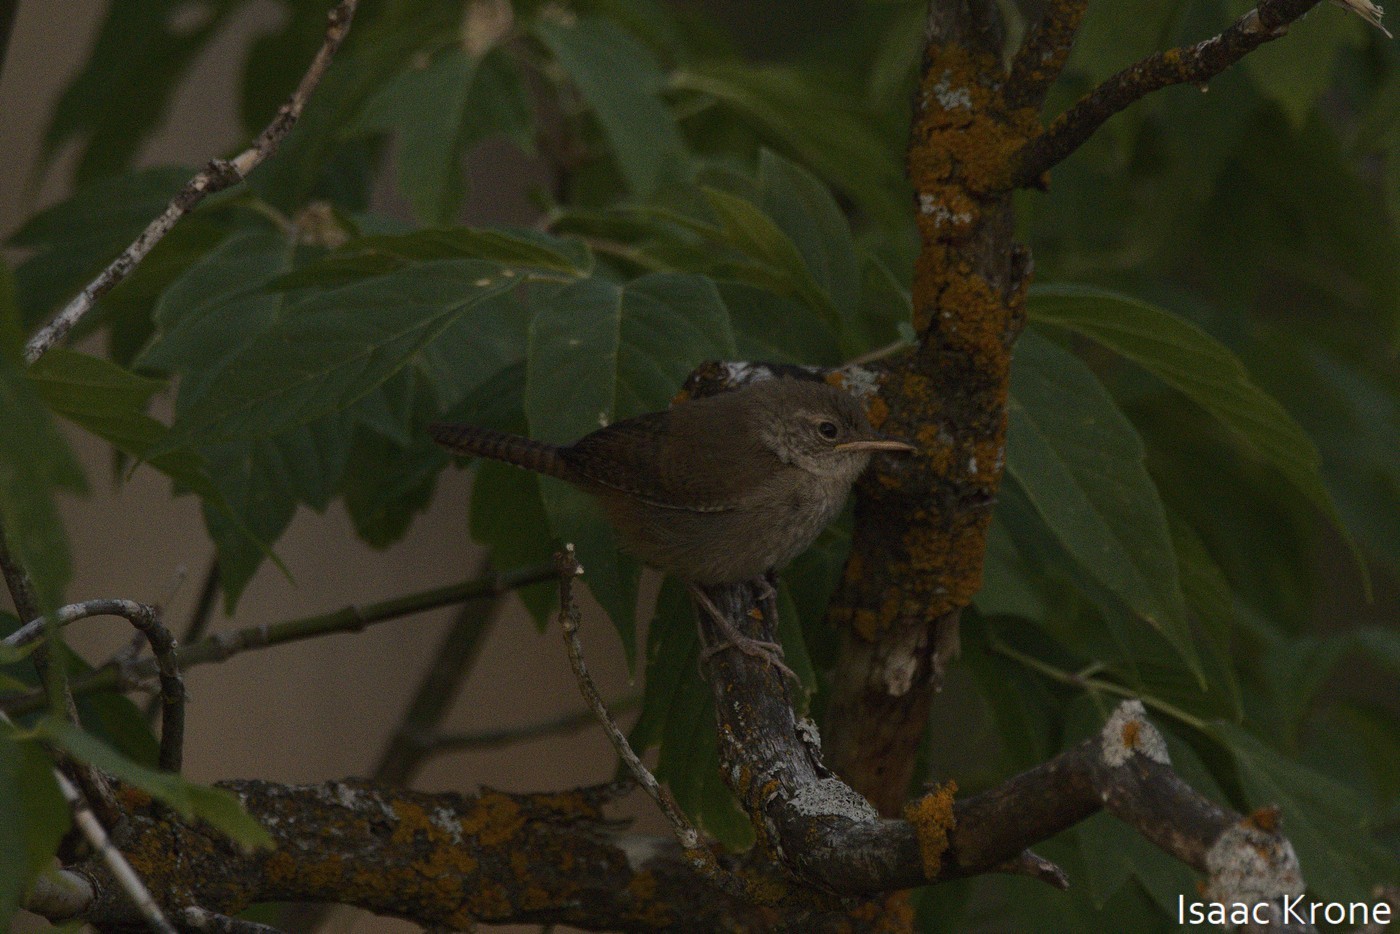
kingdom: Animalia
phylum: Chordata
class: Aves
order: Passeriformes
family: Troglodytidae
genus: Troglodytes
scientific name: Troglodytes aedon
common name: House wren
